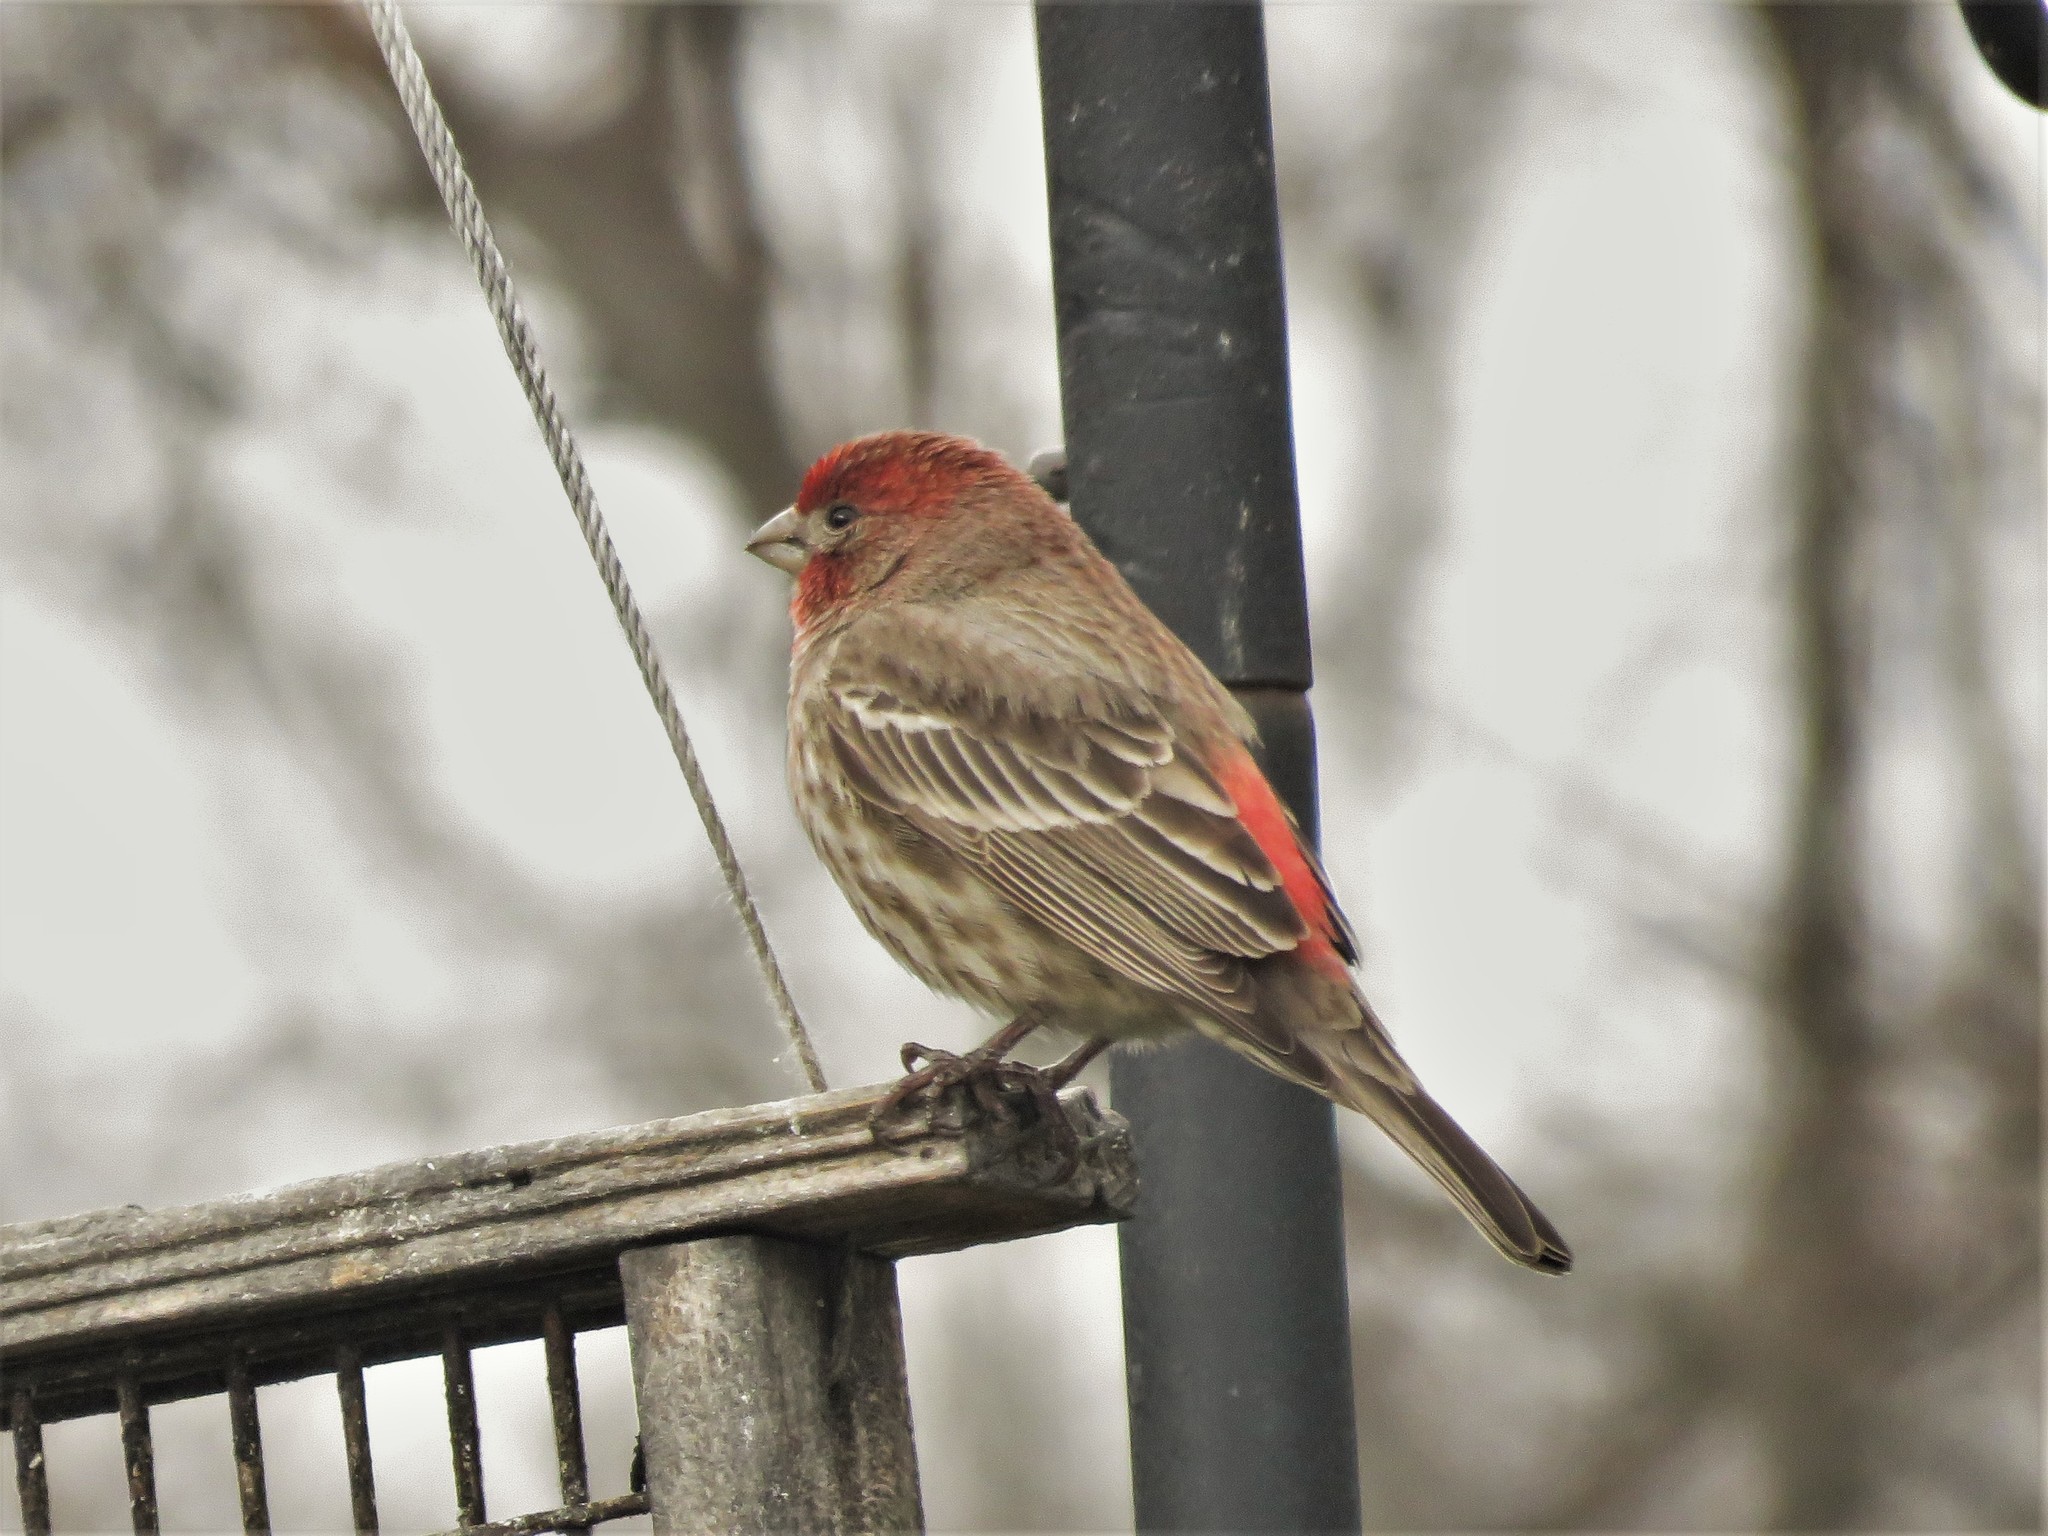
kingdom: Animalia
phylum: Chordata
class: Aves
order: Passeriformes
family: Fringillidae
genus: Haemorhous
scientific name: Haemorhous mexicanus
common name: House finch
